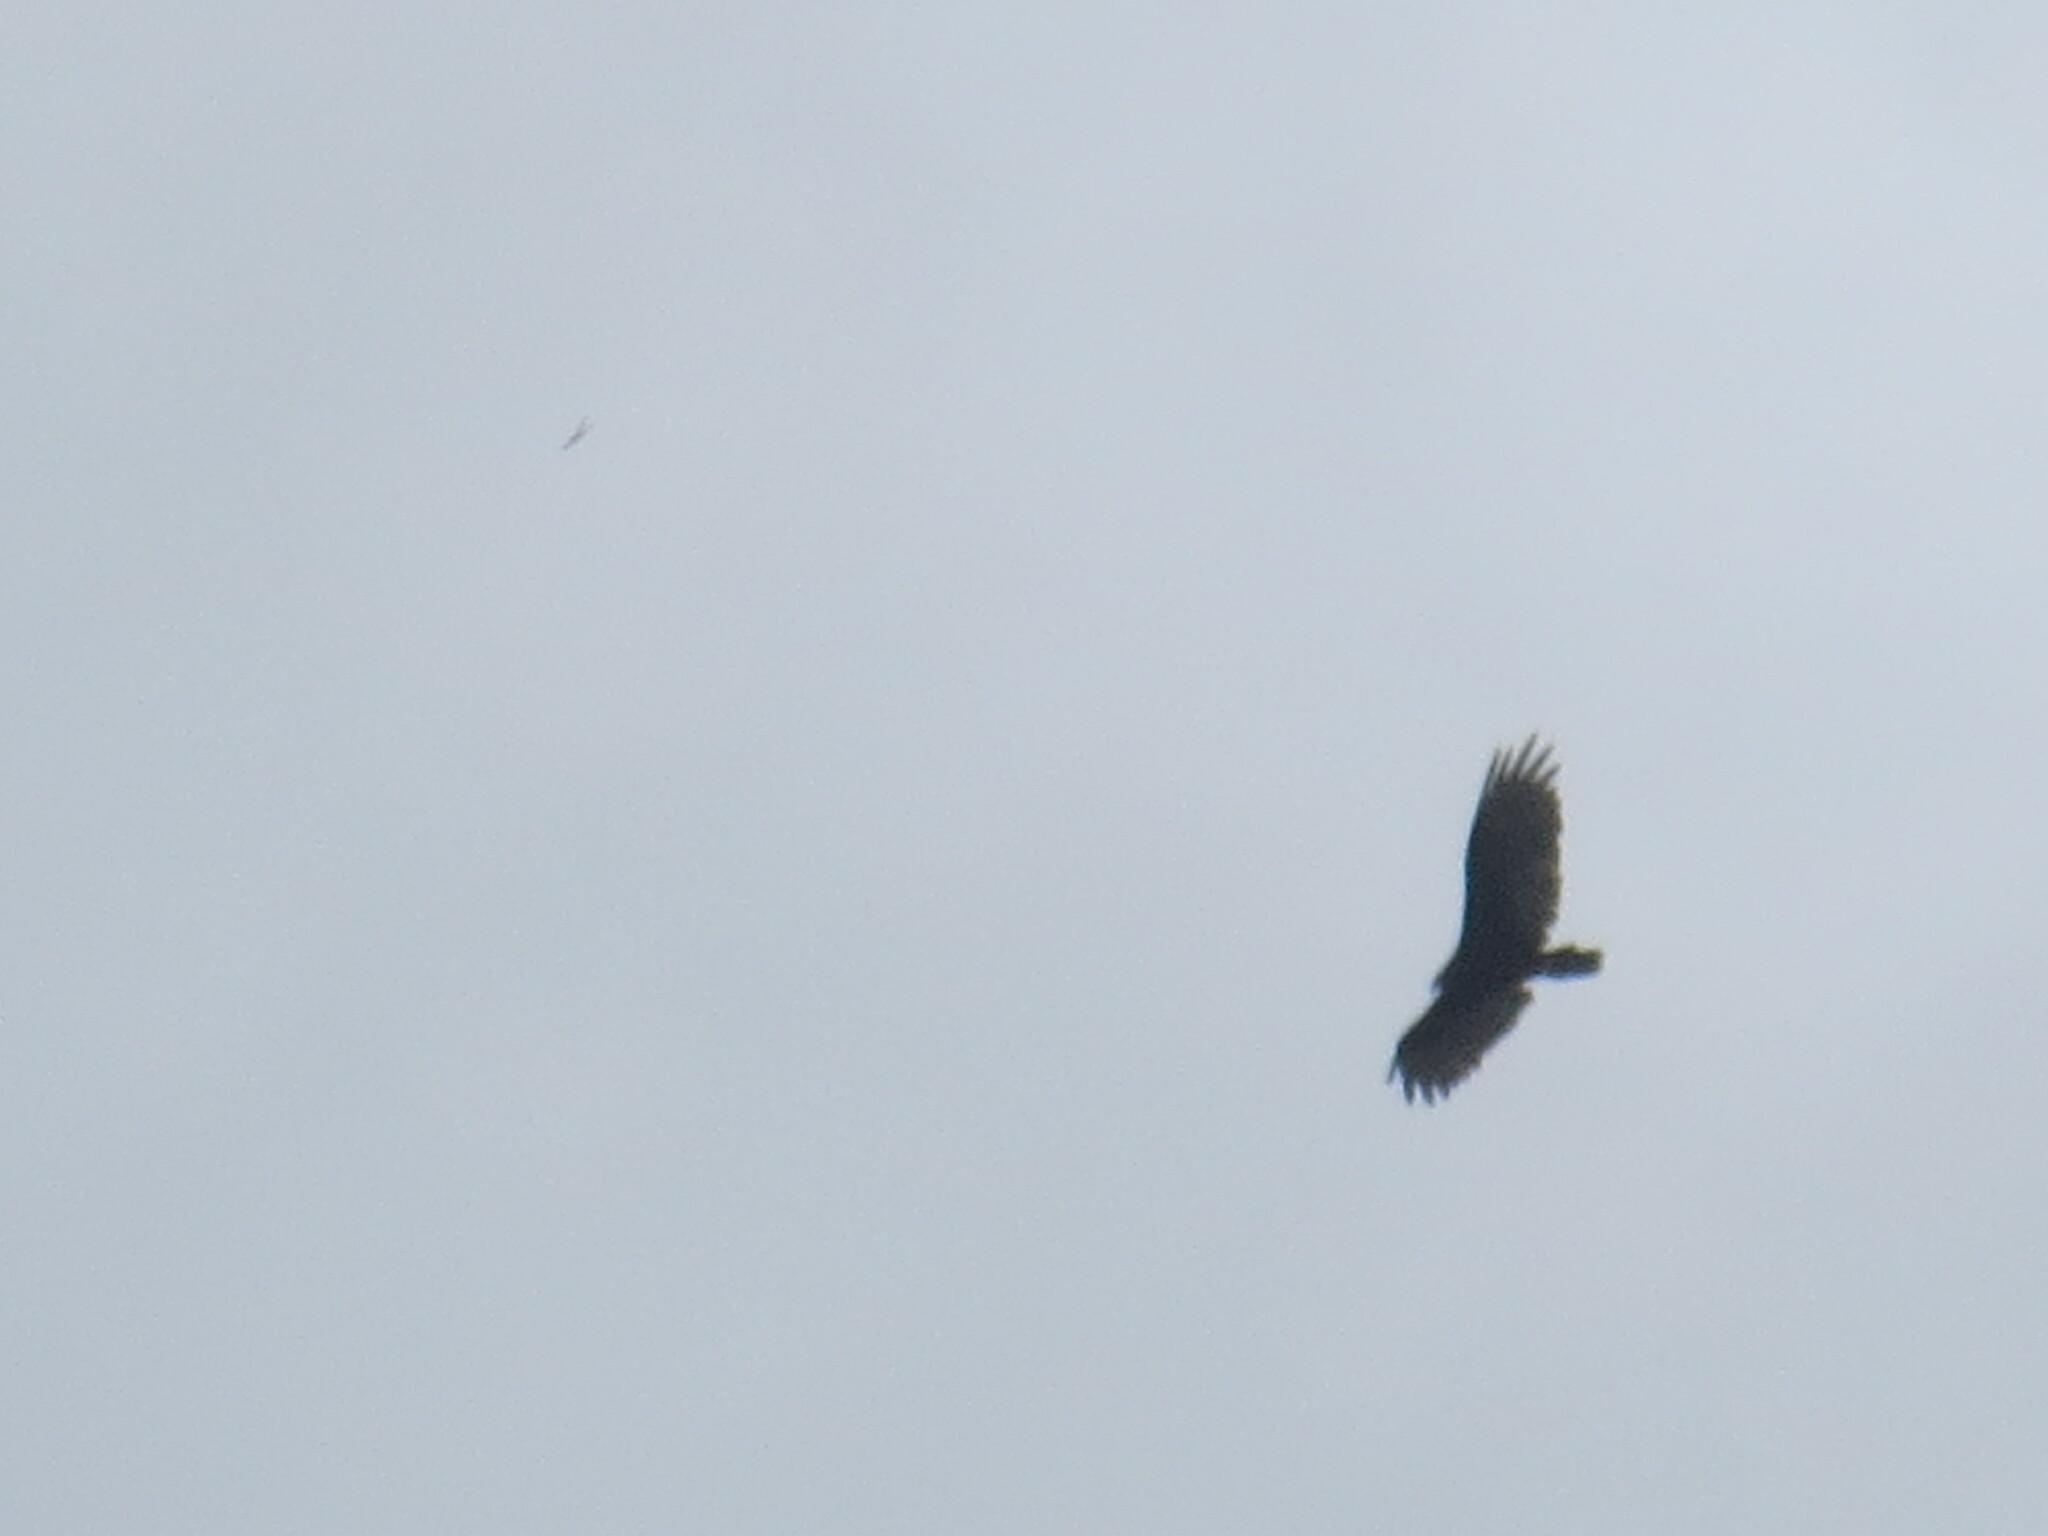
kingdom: Animalia
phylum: Chordata
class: Aves
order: Accipitriformes
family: Cathartidae
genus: Cathartes
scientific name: Cathartes aura
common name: Turkey vulture
